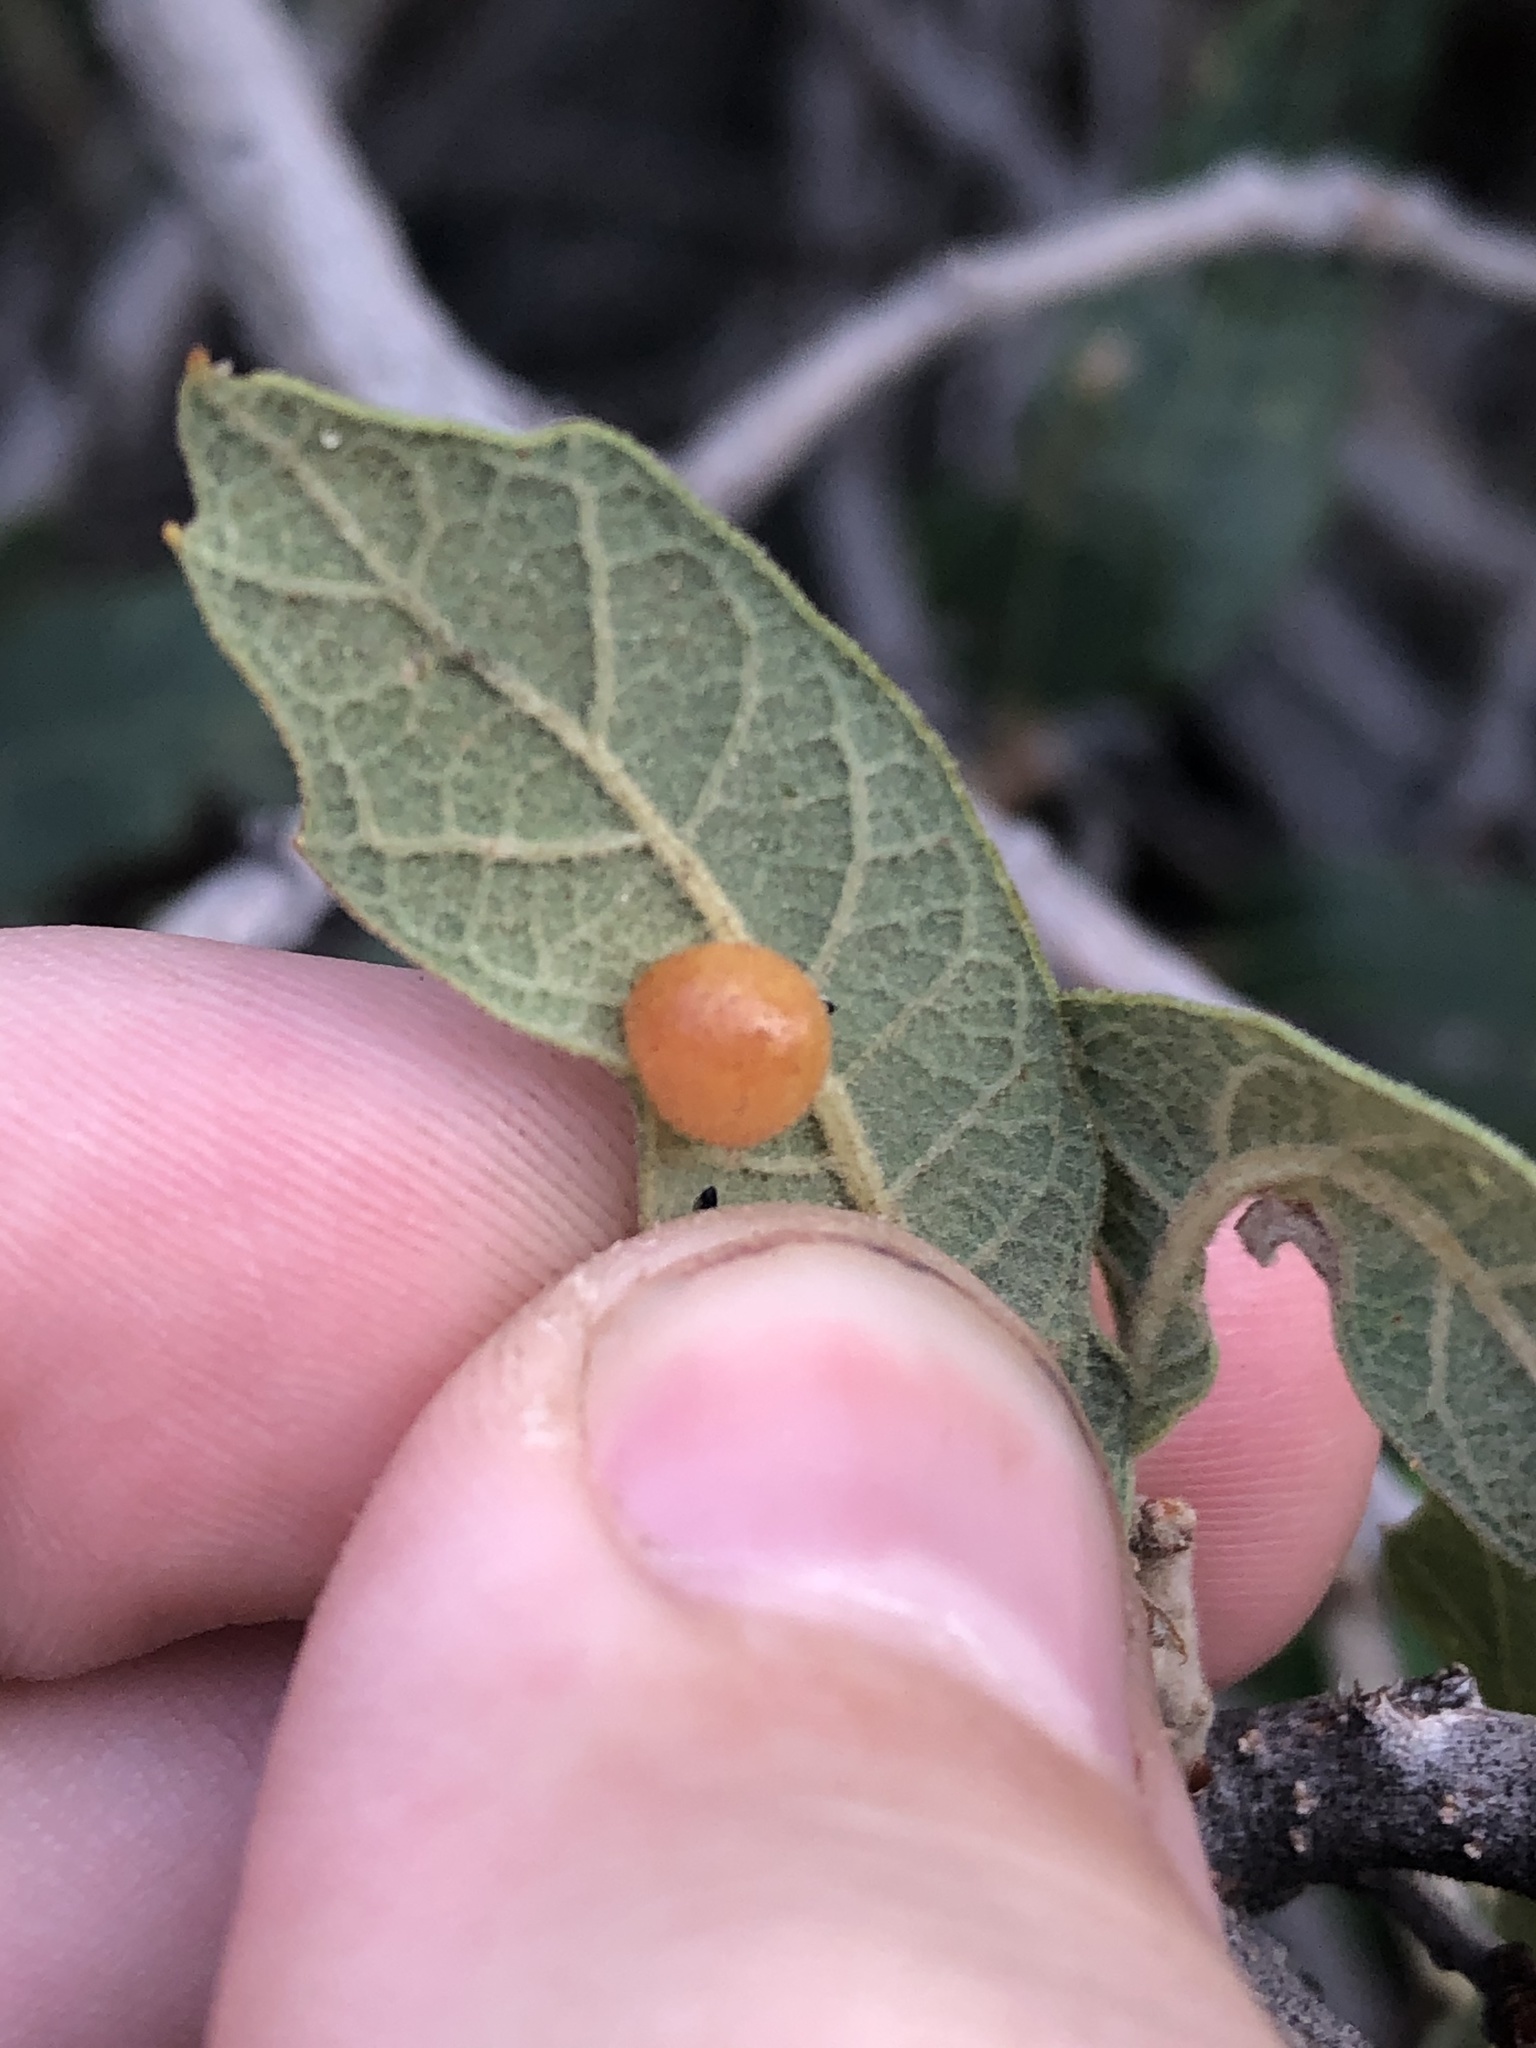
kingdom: Plantae
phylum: Tracheophyta
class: Magnoliopsida
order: Fagales
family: Fagaceae
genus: Quercus
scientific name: Quercus grisea
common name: Gray oak
